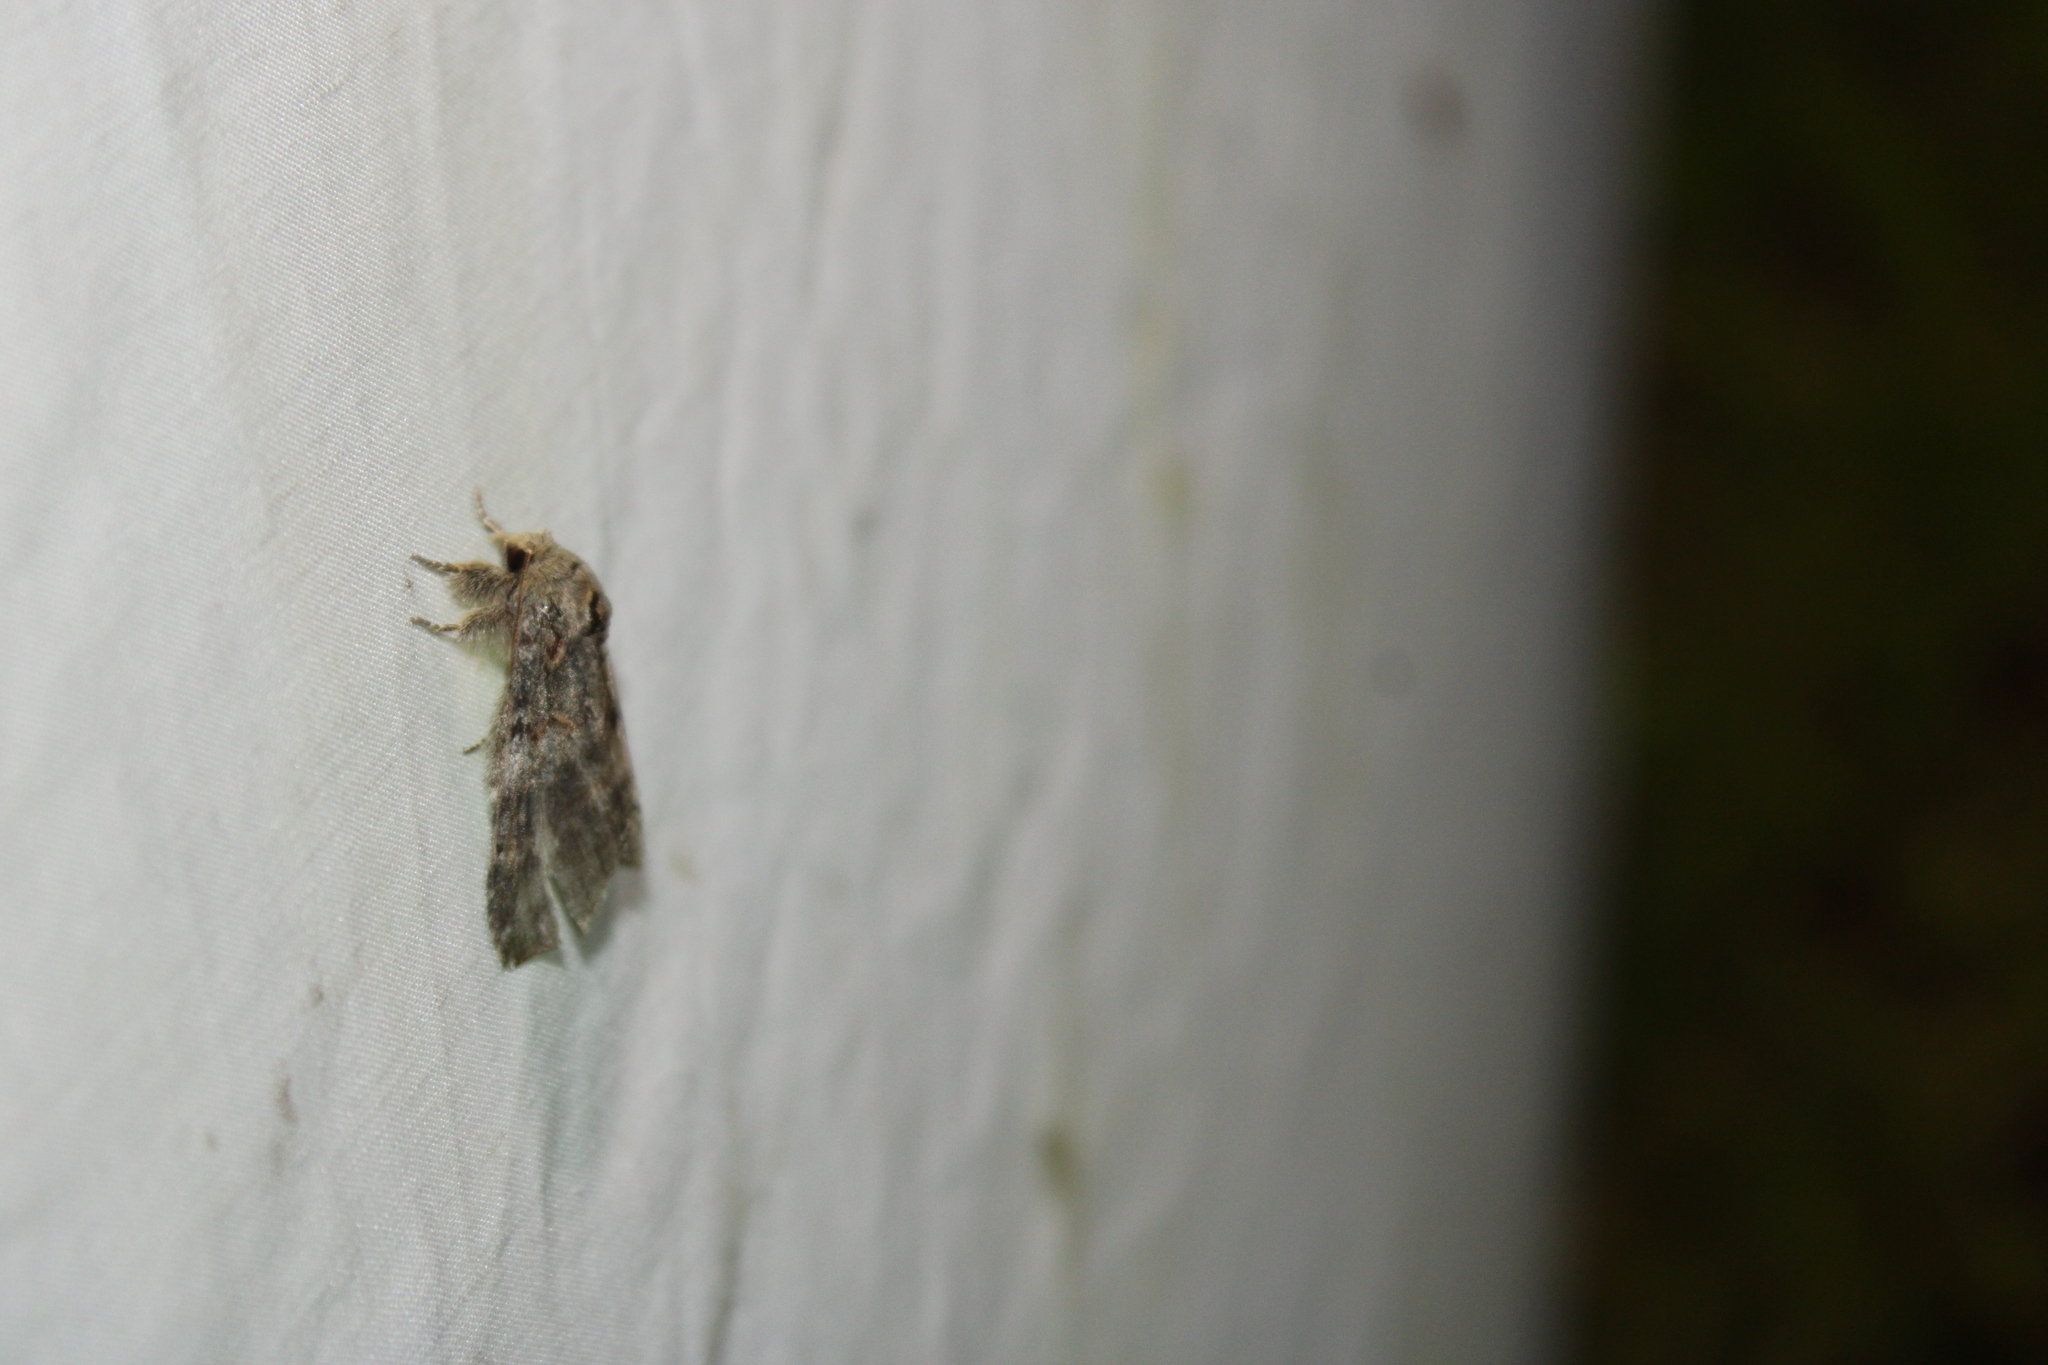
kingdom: Animalia
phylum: Arthropoda
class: Insecta
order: Lepidoptera
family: Notodontidae
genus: Peridea
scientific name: Peridea angulosa
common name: Angulose prominent
